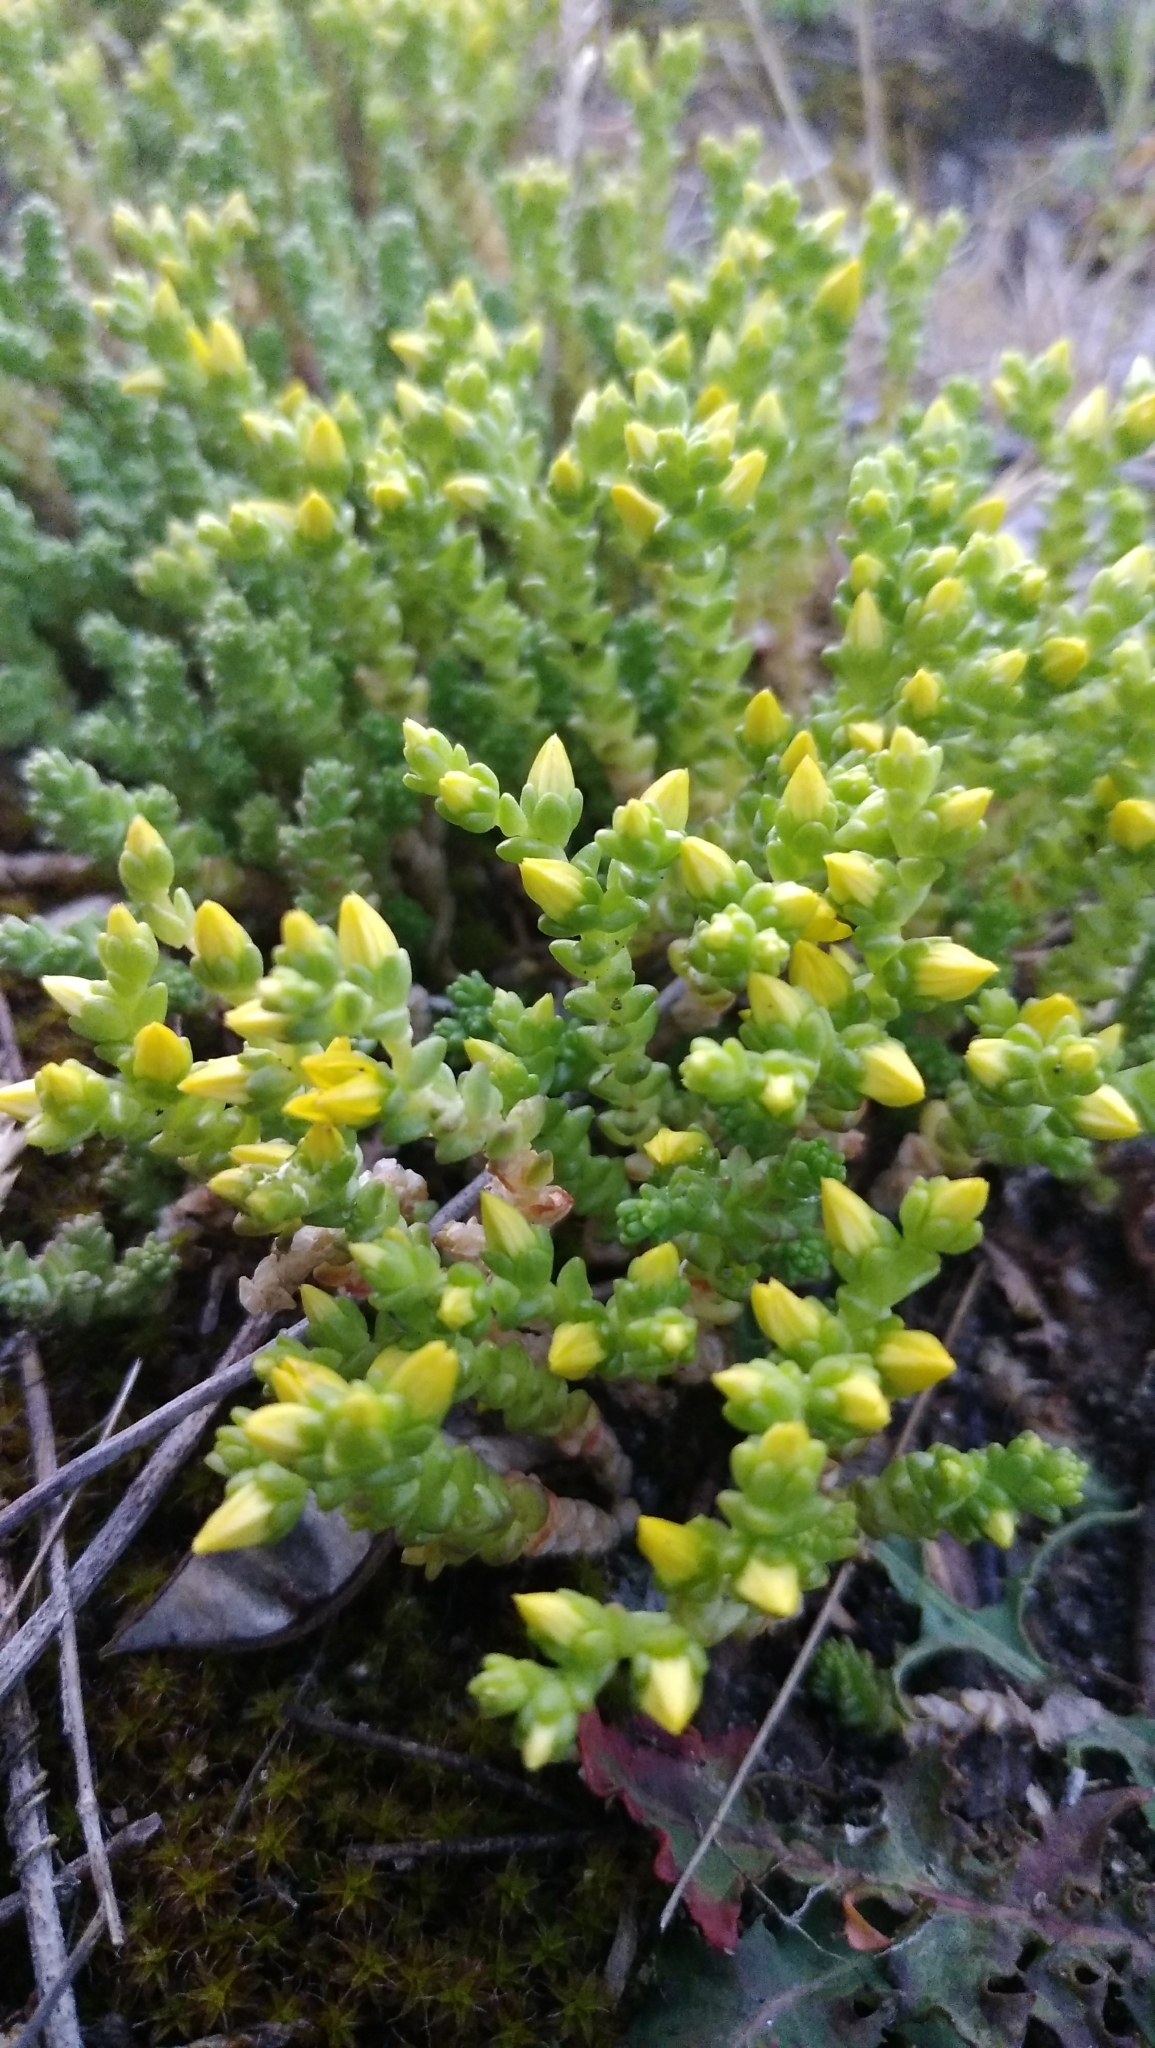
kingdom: Plantae
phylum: Tracheophyta
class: Magnoliopsida
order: Saxifragales
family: Crassulaceae
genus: Sedum
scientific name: Sedum acre
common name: Biting stonecrop
